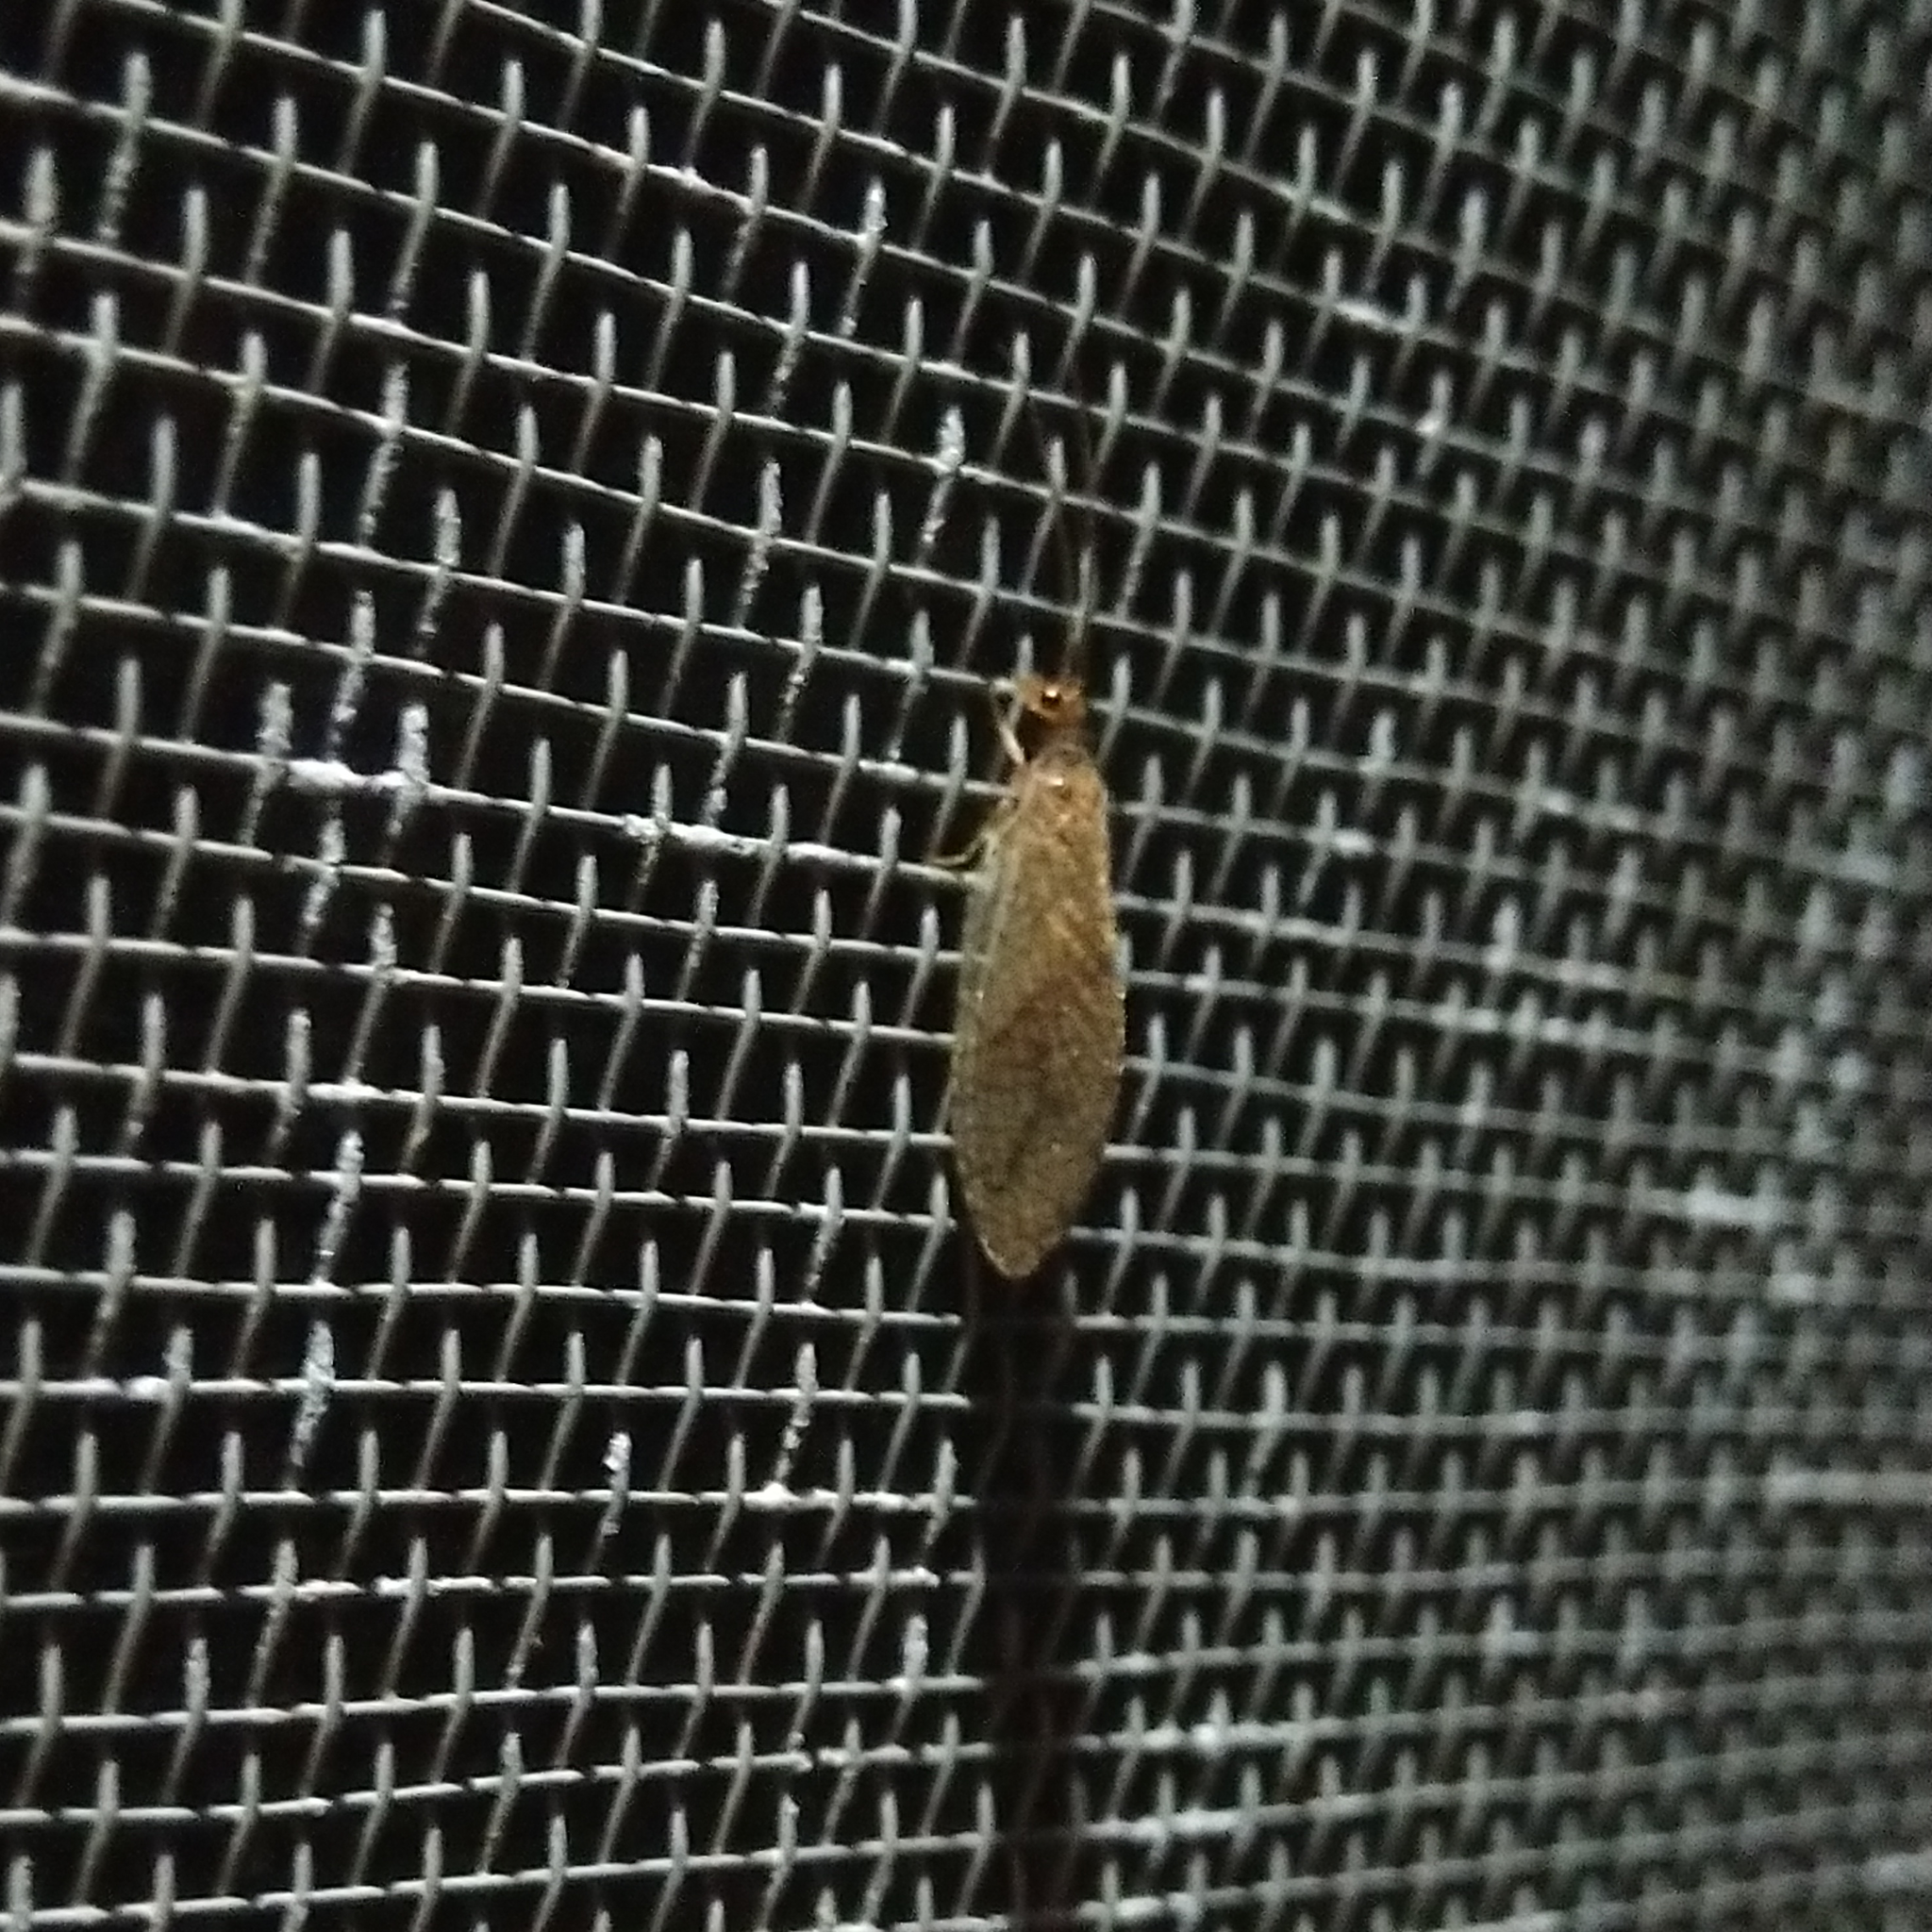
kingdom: Animalia
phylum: Arthropoda
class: Insecta
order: Neuroptera
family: Hemerobiidae
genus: Micromus
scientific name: Micromus posticus
